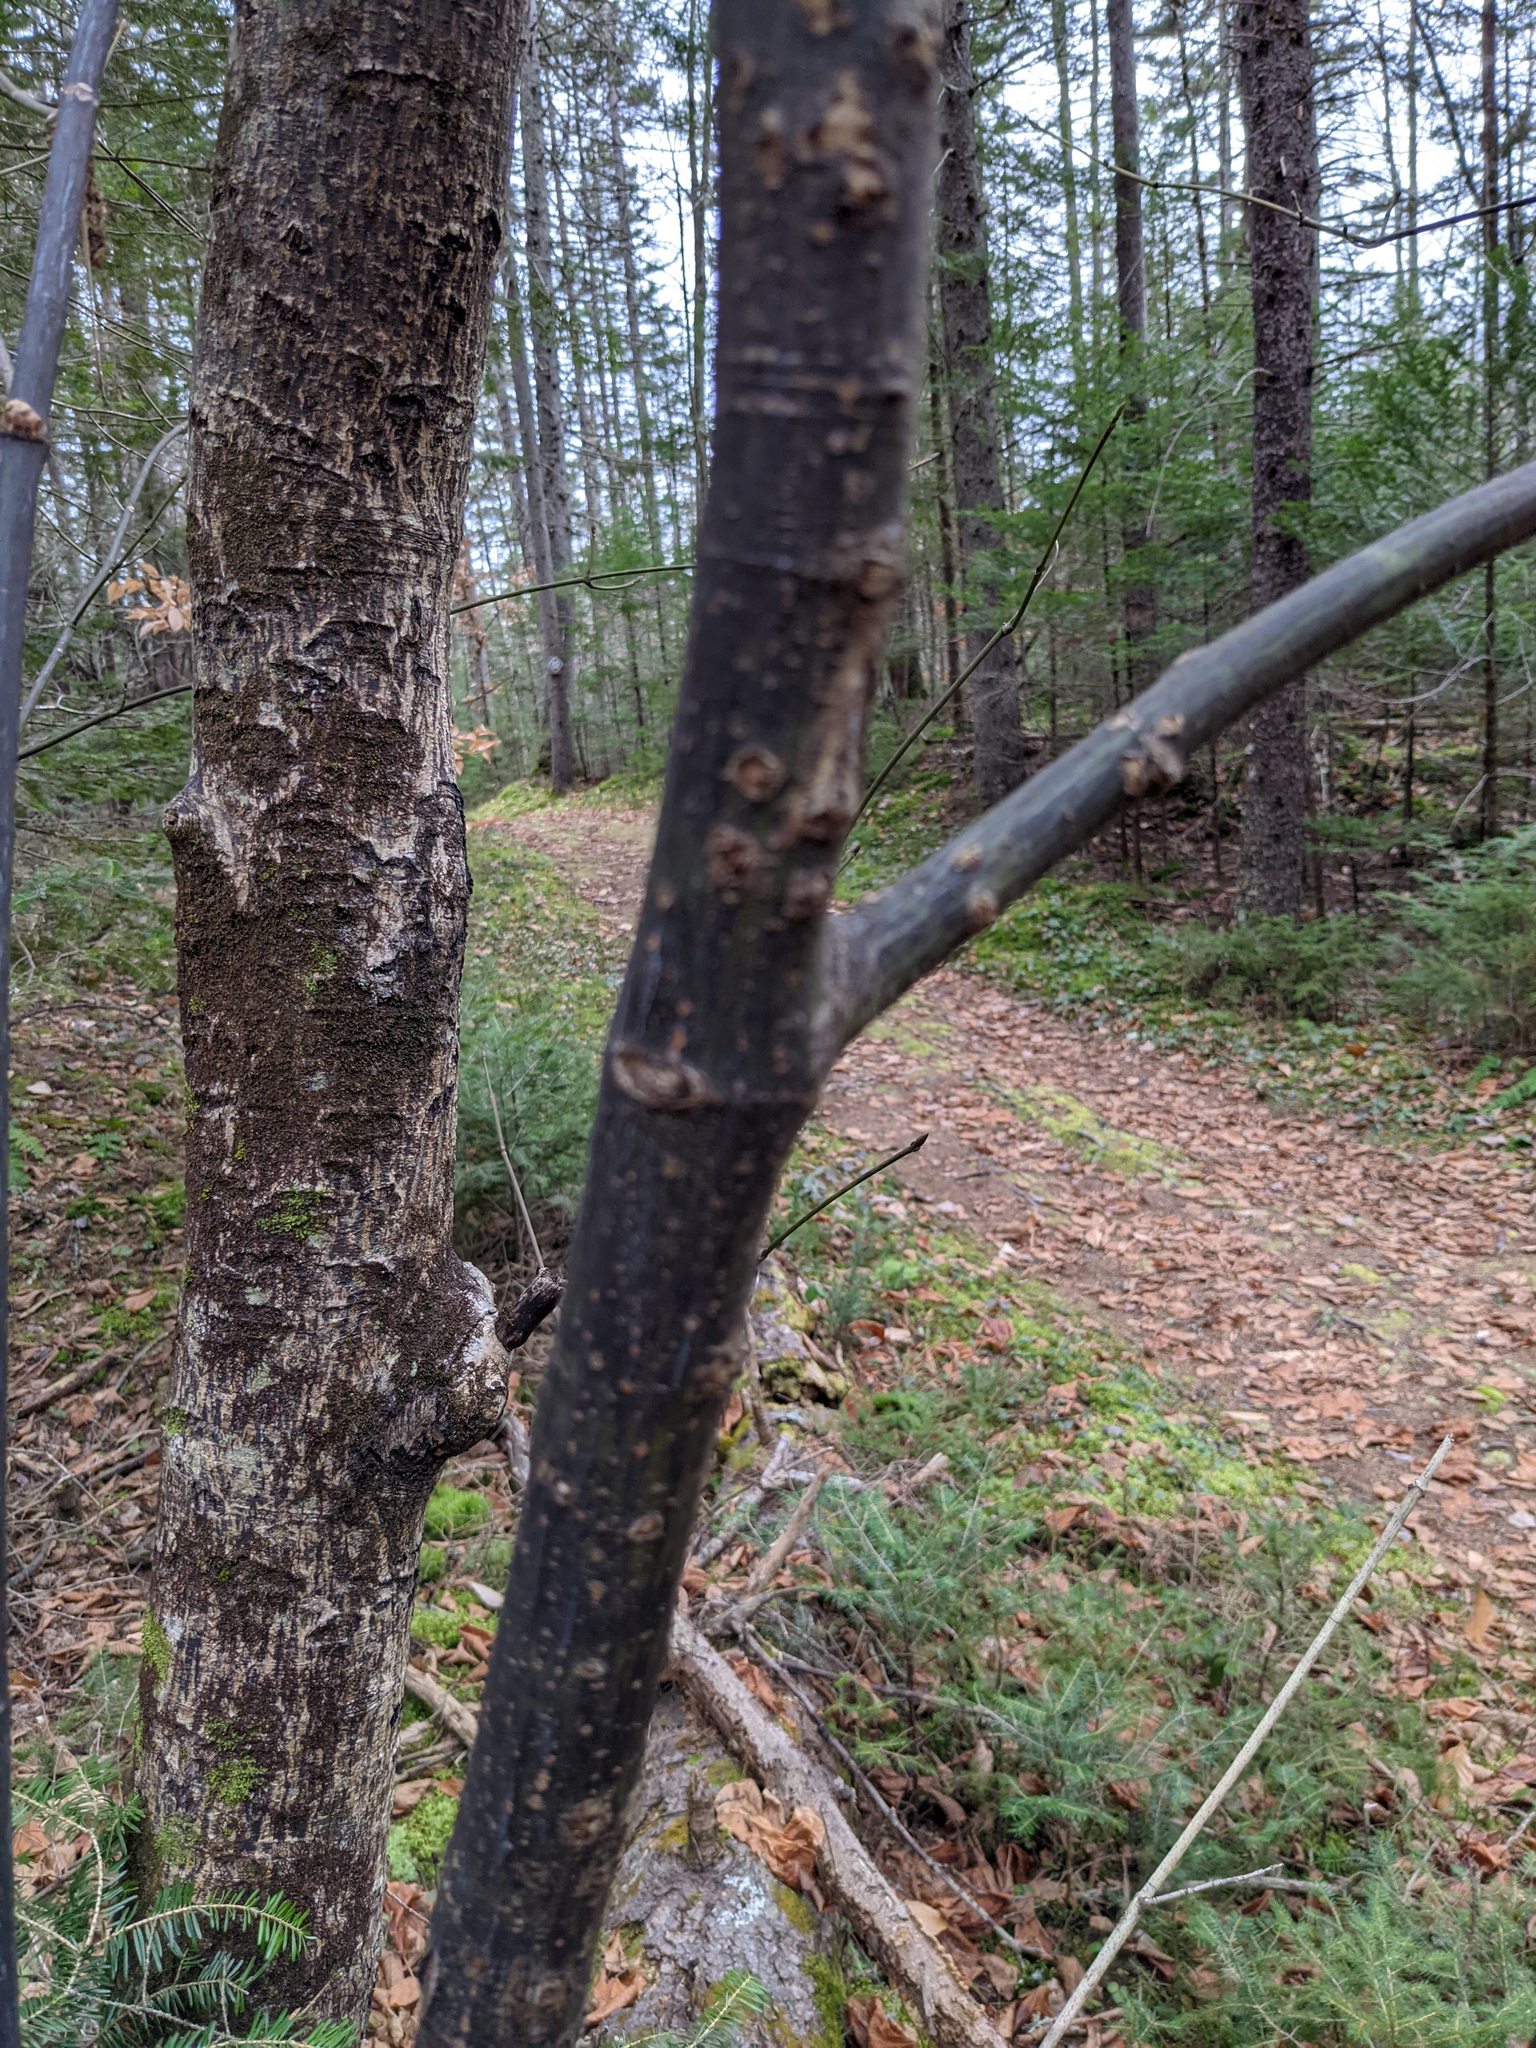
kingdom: Plantae
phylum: Tracheophyta
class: Magnoliopsida
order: Sapindales
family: Sapindaceae
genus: Acer
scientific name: Acer pensylvanicum
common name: Moosewood
